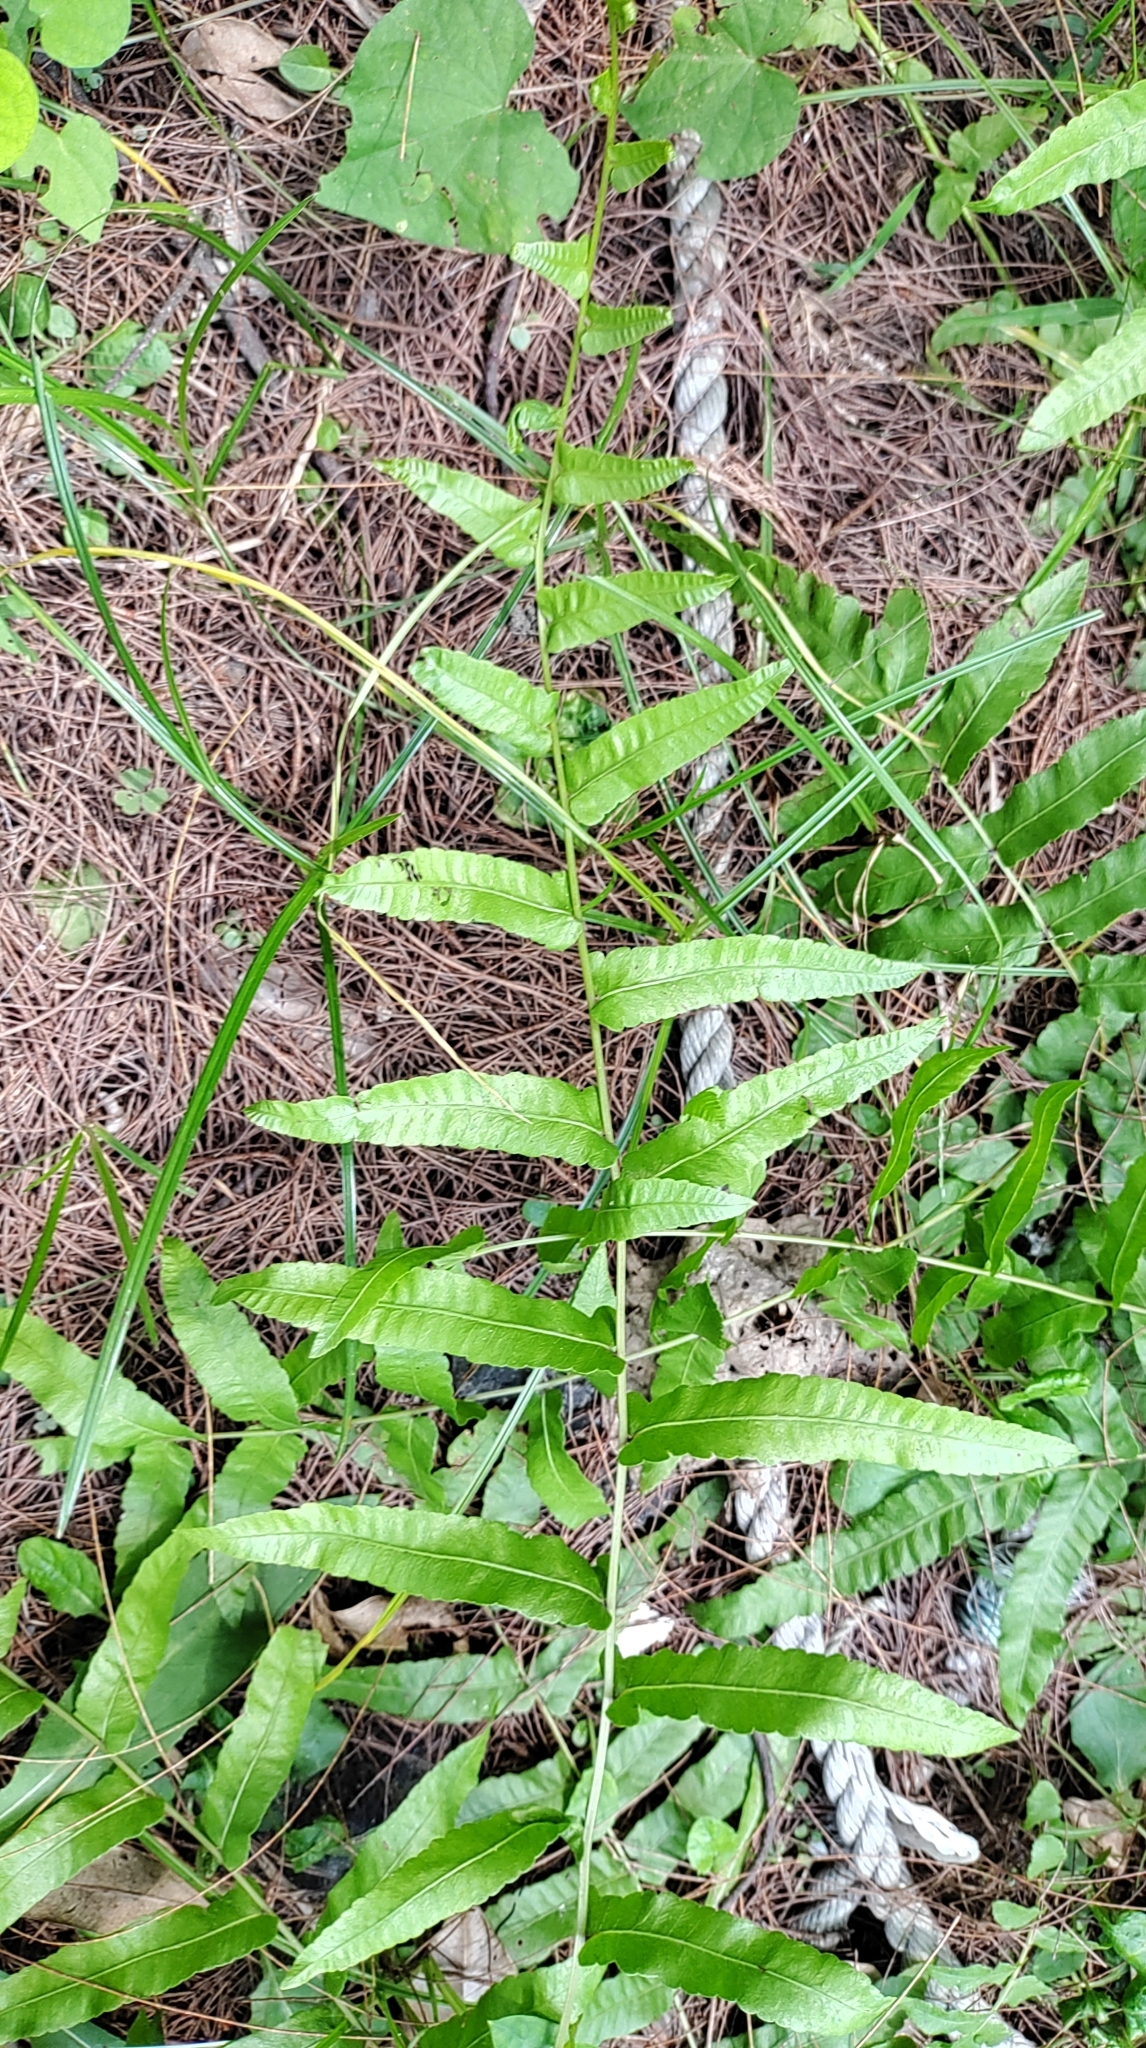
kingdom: Plantae
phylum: Tracheophyta
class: Polypodiopsida
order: Polypodiales
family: Thelypteridaceae
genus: Ampelopteris
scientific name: Ampelopteris prolifera
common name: Riverine scrambler
